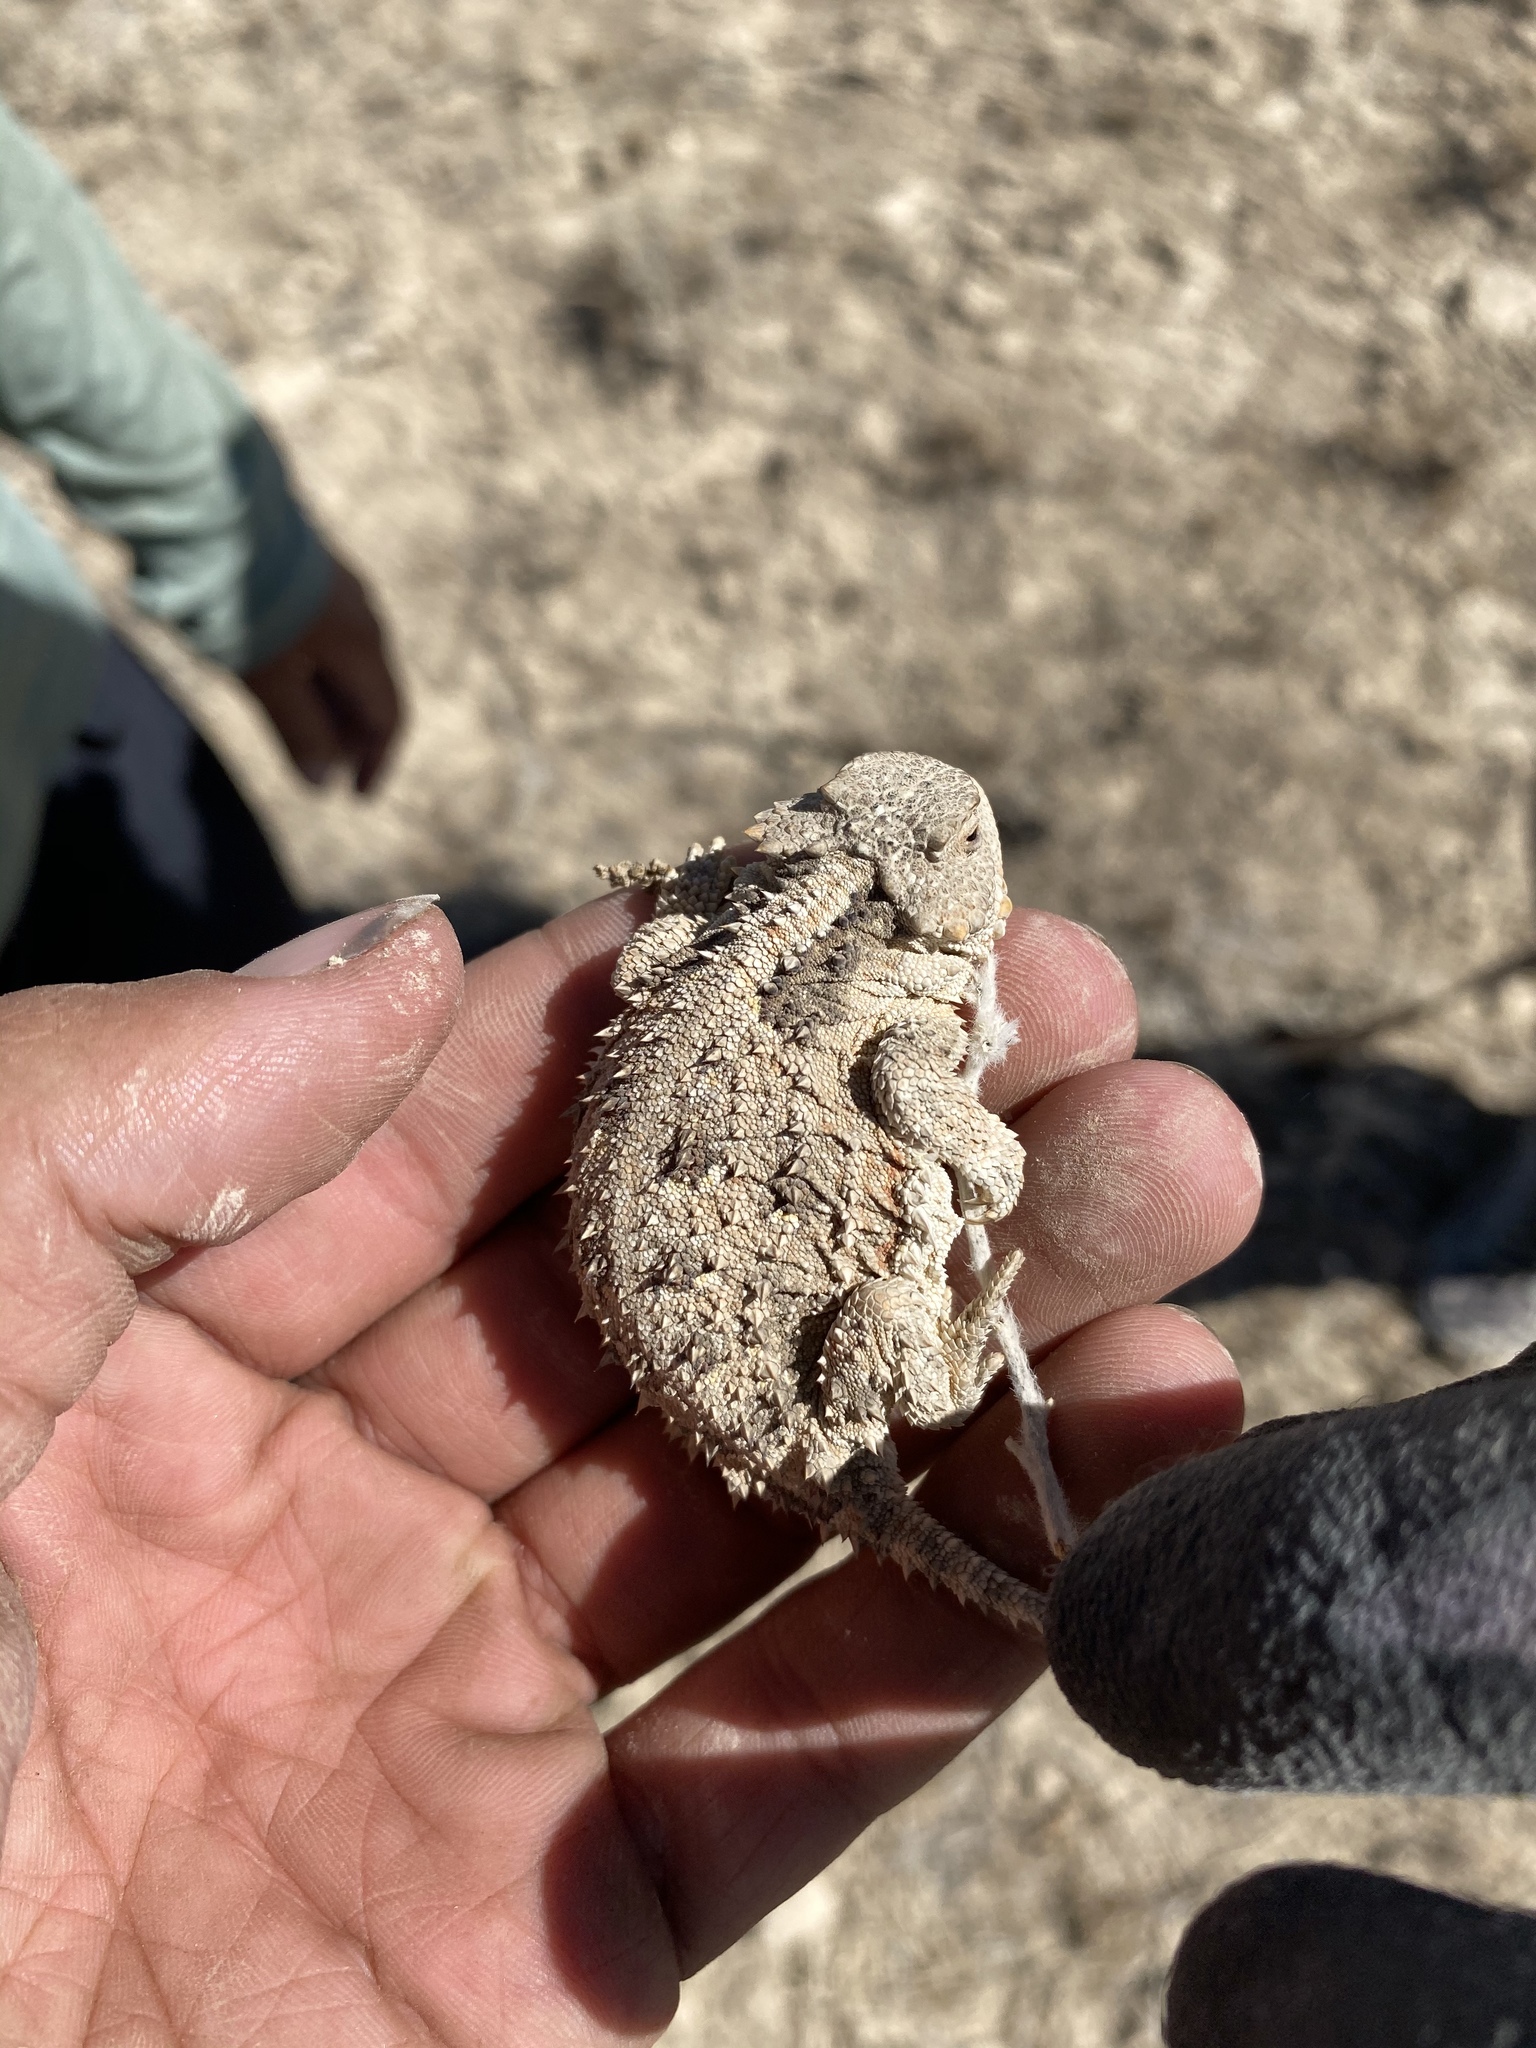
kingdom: Animalia
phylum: Chordata
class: Squamata
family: Phrynosomatidae
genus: Phrynosoma
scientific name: Phrynosoma hernandesi
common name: Greater short-horned lizard
